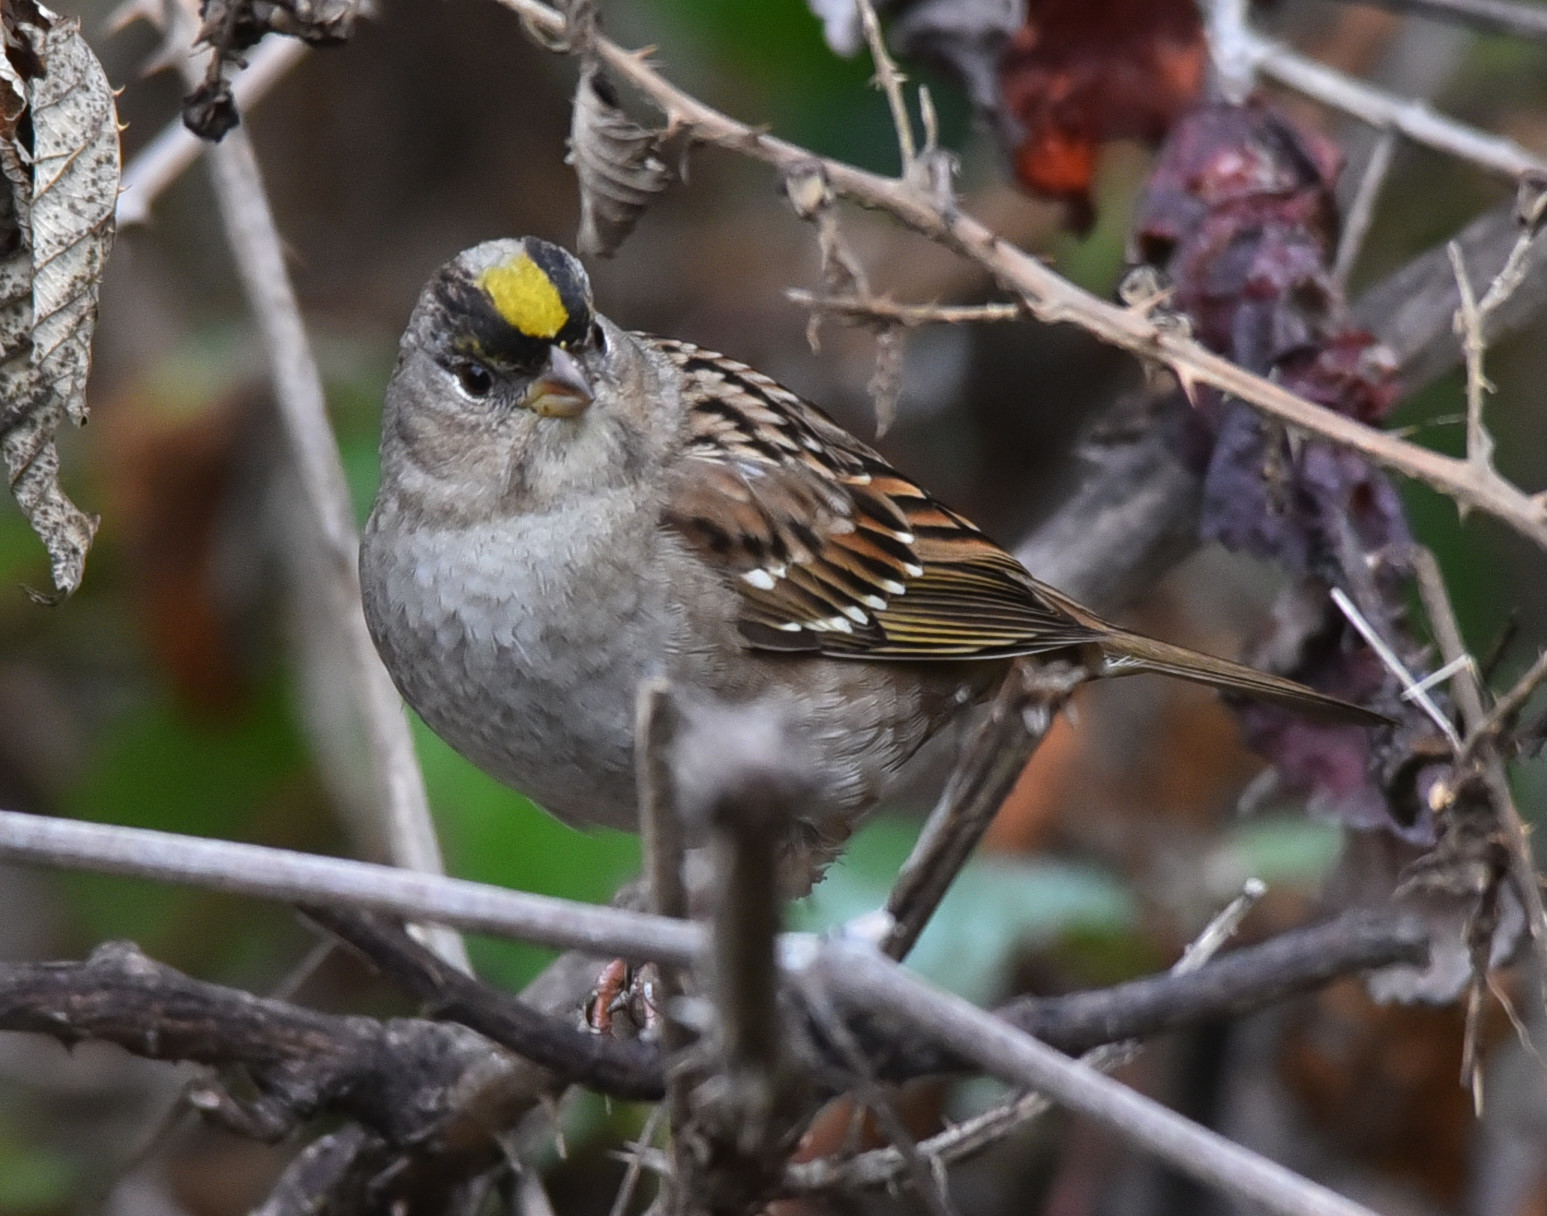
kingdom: Animalia
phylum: Chordata
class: Aves
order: Passeriformes
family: Passerellidae
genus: Zonotrichia
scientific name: Zonotrichia atricapilla
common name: Golden-crowned sparrow
